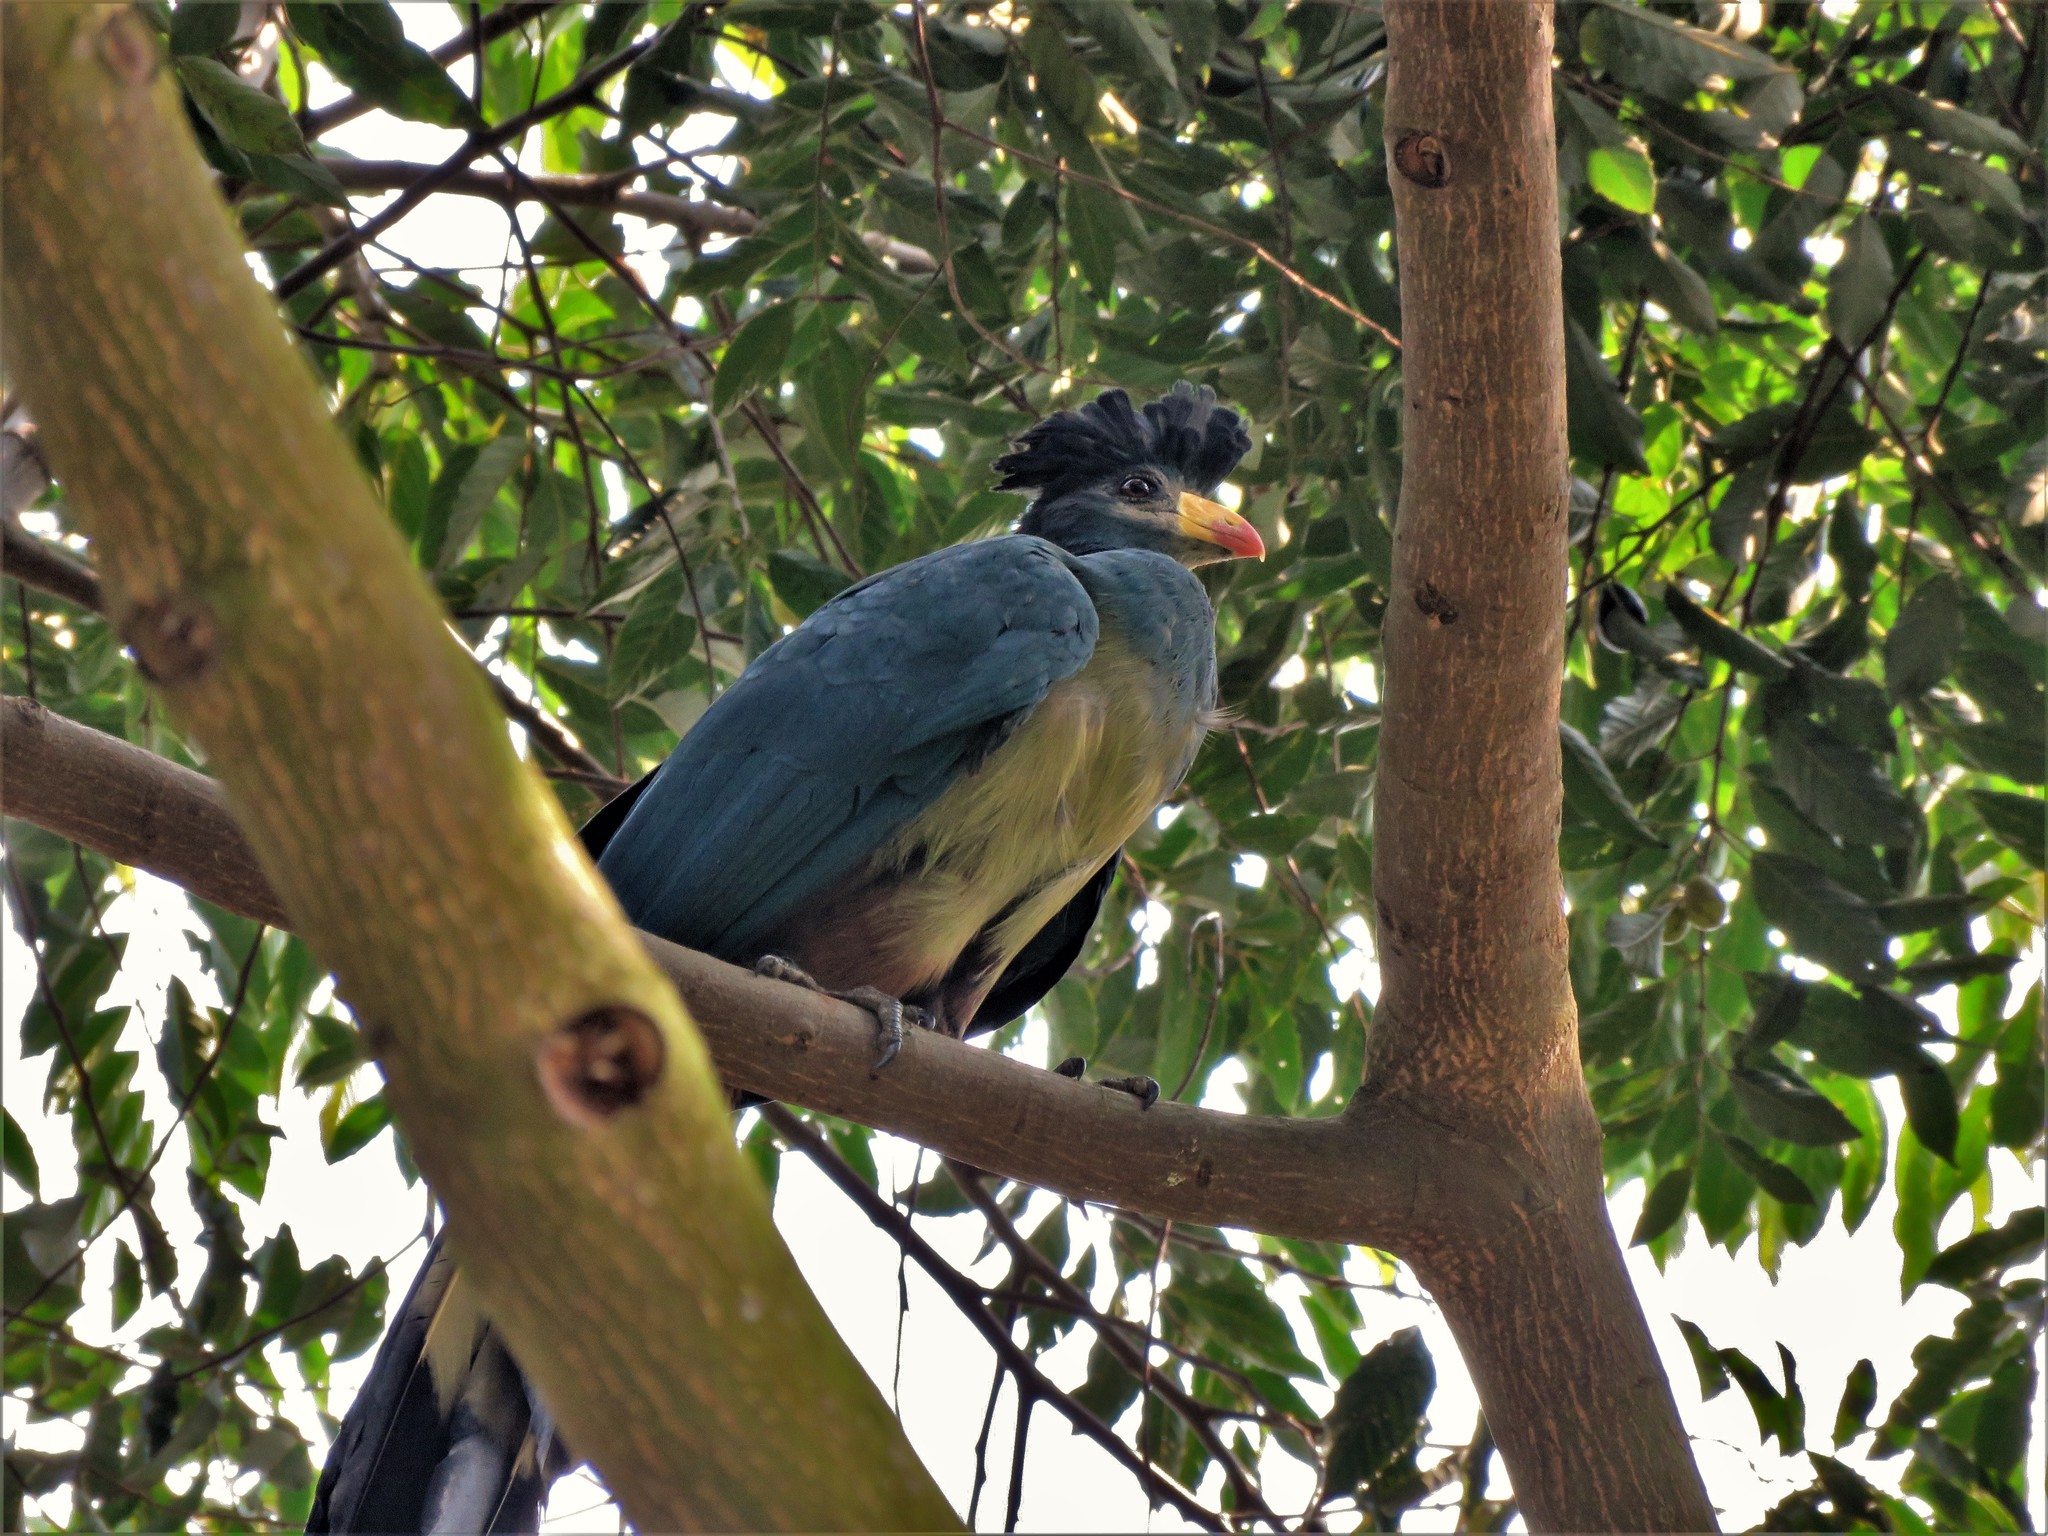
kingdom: Animalia
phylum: Chordata
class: Aves
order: Musophagiformes
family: Musophagidae
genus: Corythaeola
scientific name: Corythaeola cristata
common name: Great blue turaco
